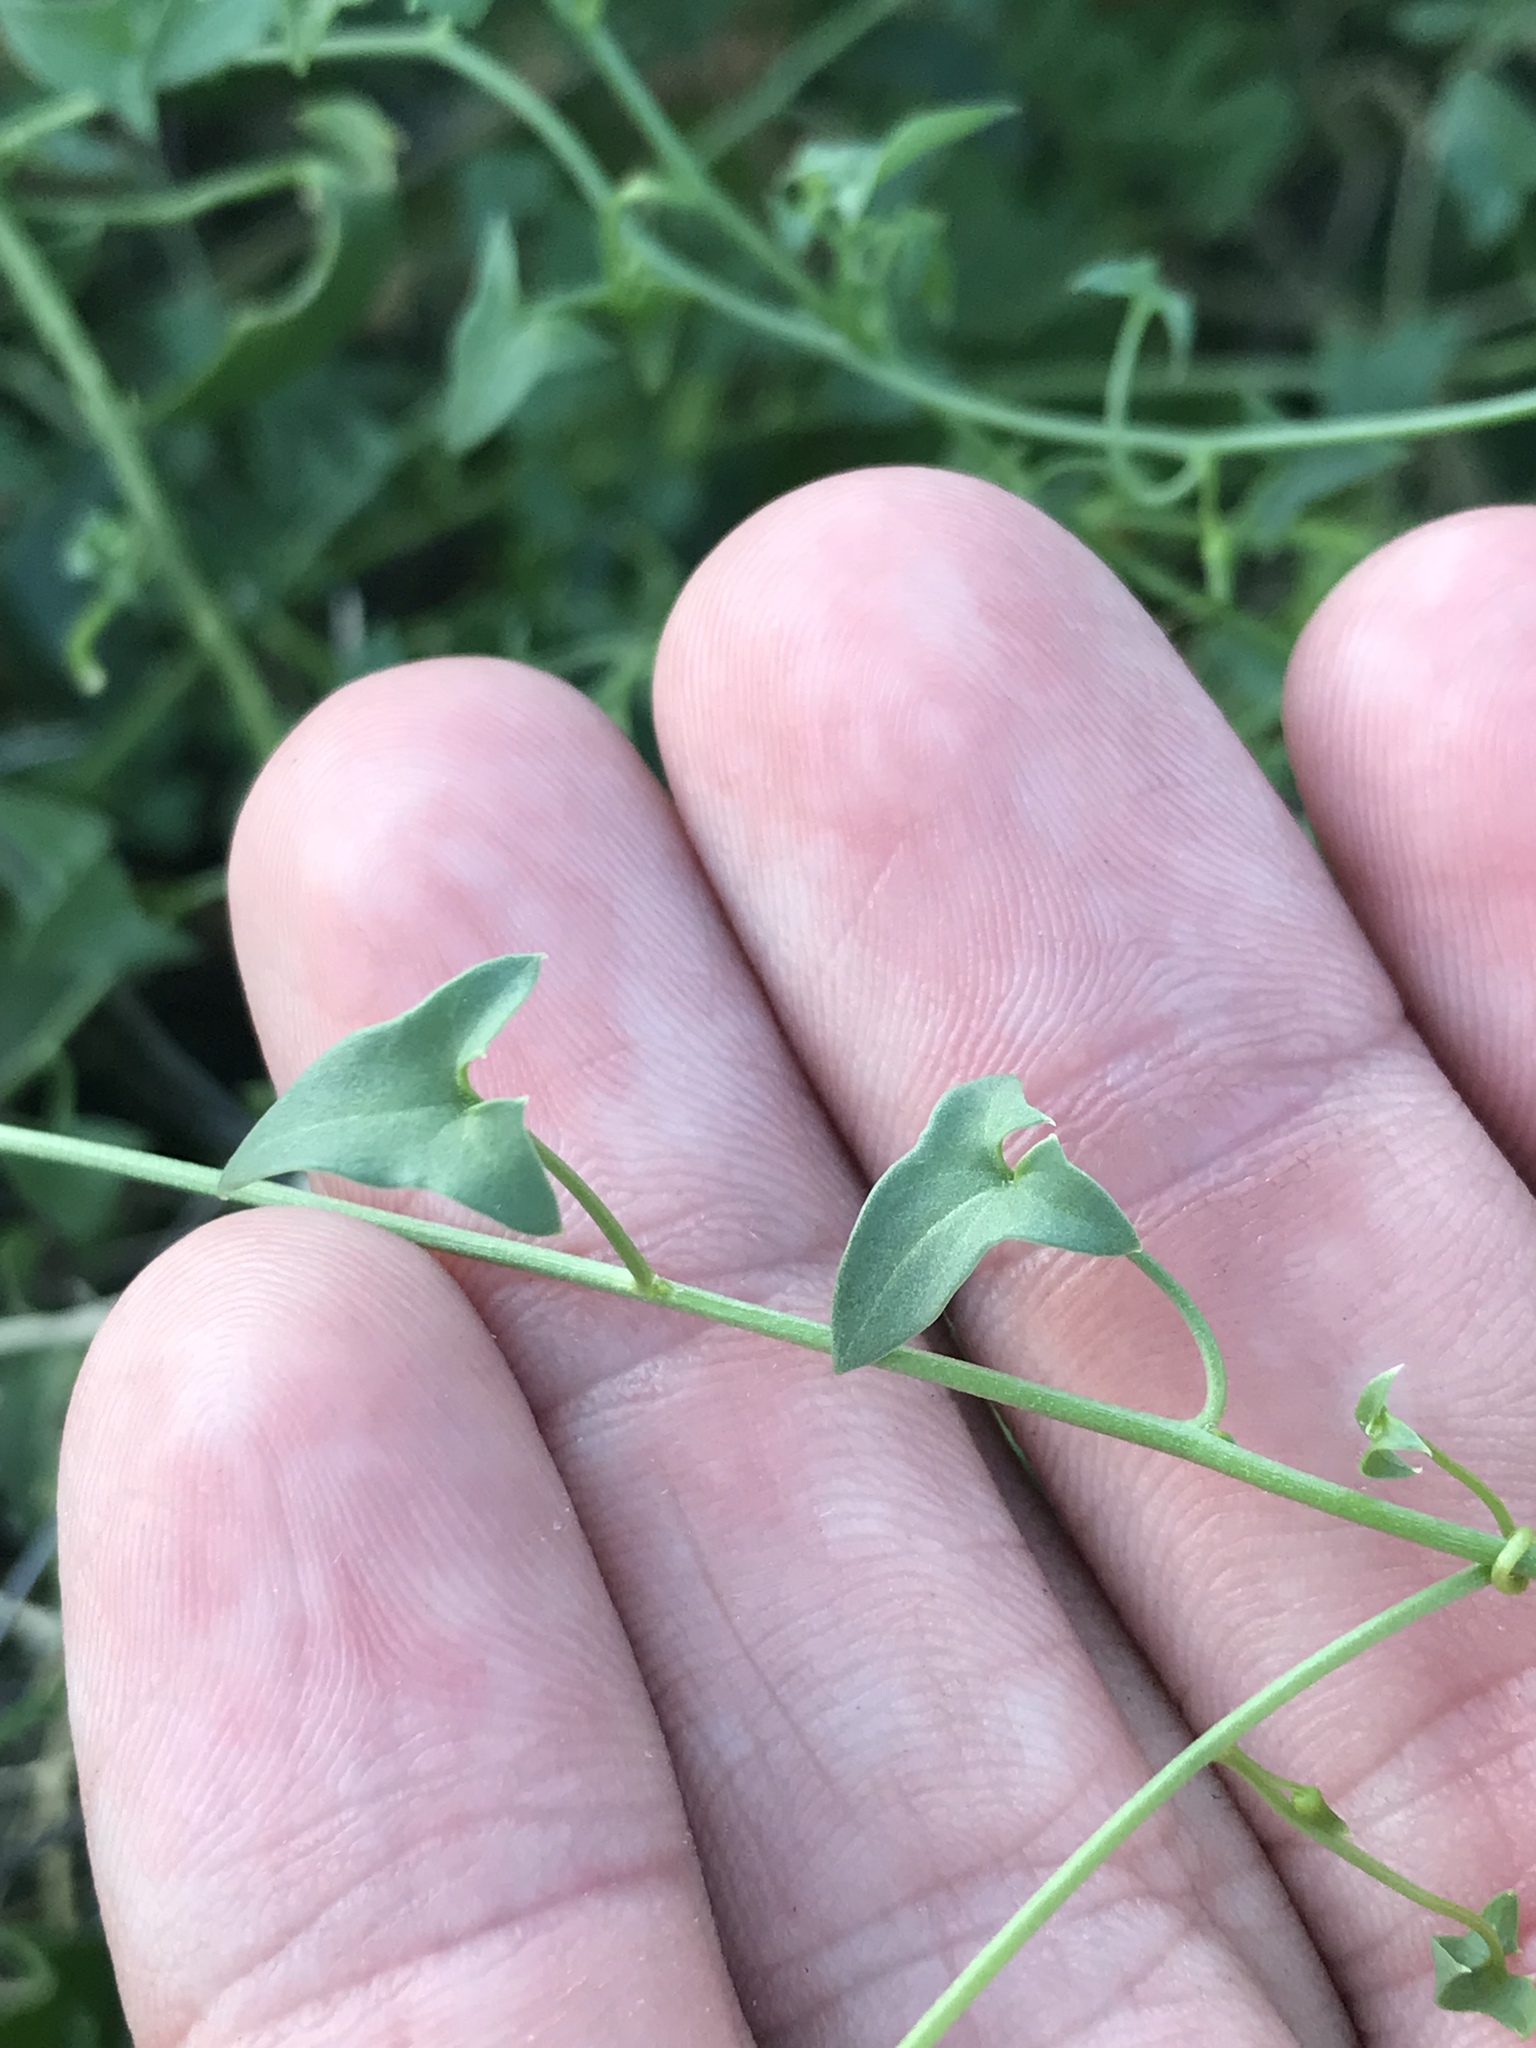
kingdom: Plantae
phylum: Tracheophyta
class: Magnoliopsida
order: Lamiales
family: Plantaginaceae
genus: Maurandella
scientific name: Maurandella antirrhiniflora
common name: Violet twining-snapdragon
